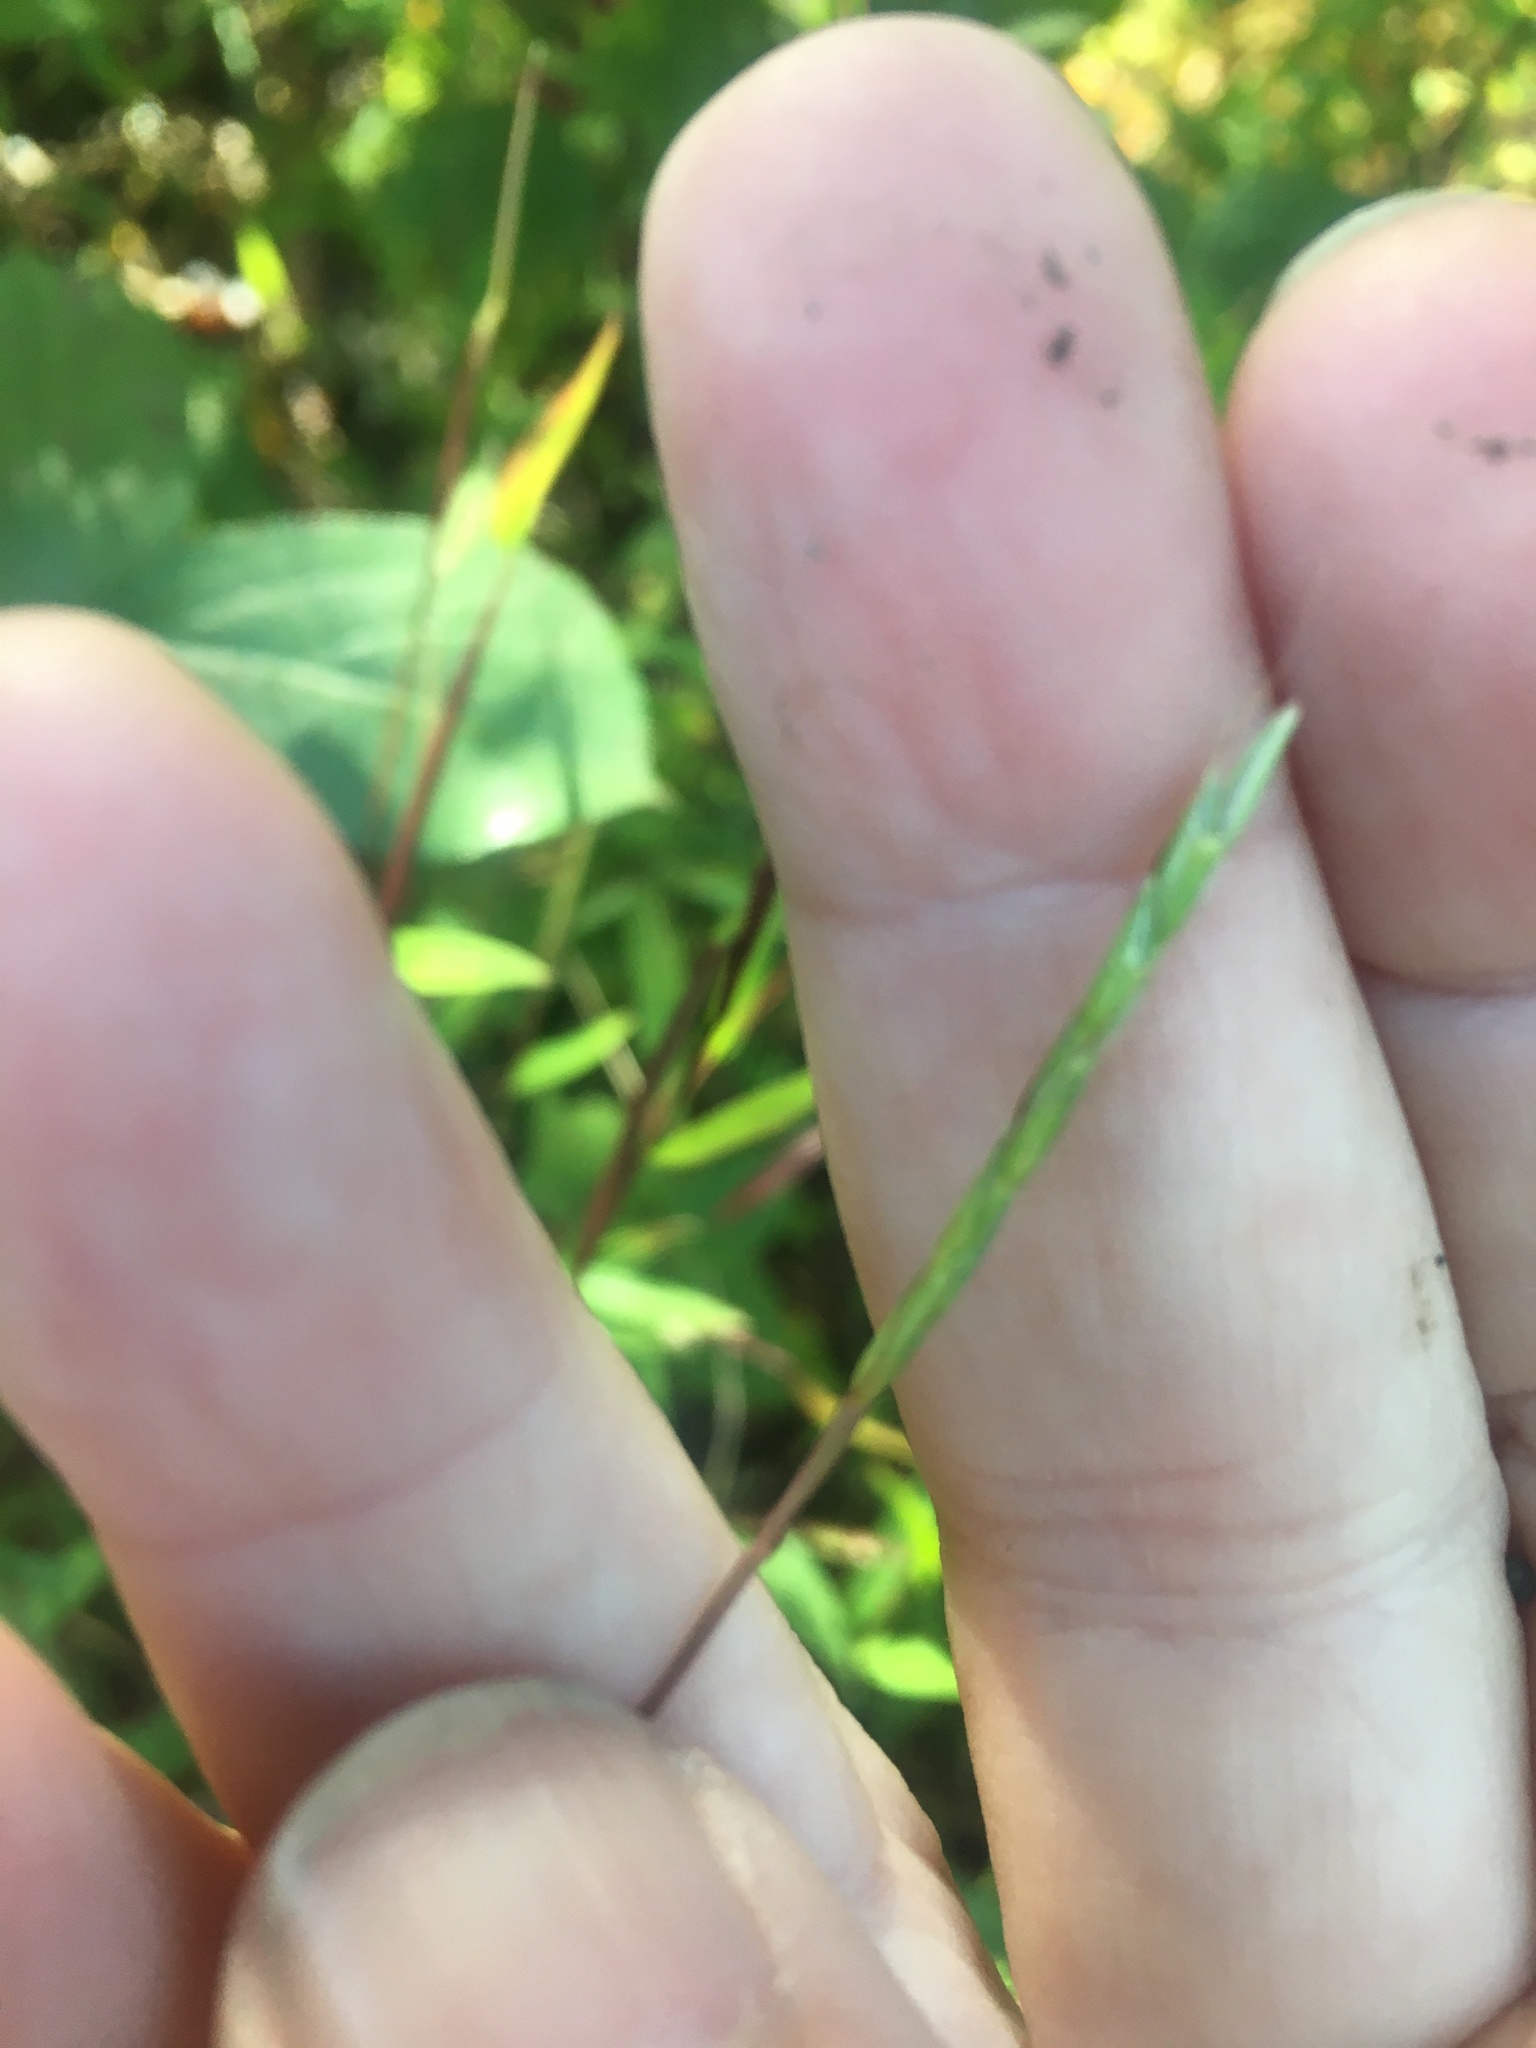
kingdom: Plantae
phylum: Tracheophyta
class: Liliopsida
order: Poales
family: Poaceae
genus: Microstegium
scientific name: Microstegium vimineum
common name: Japanese stiltgrass
